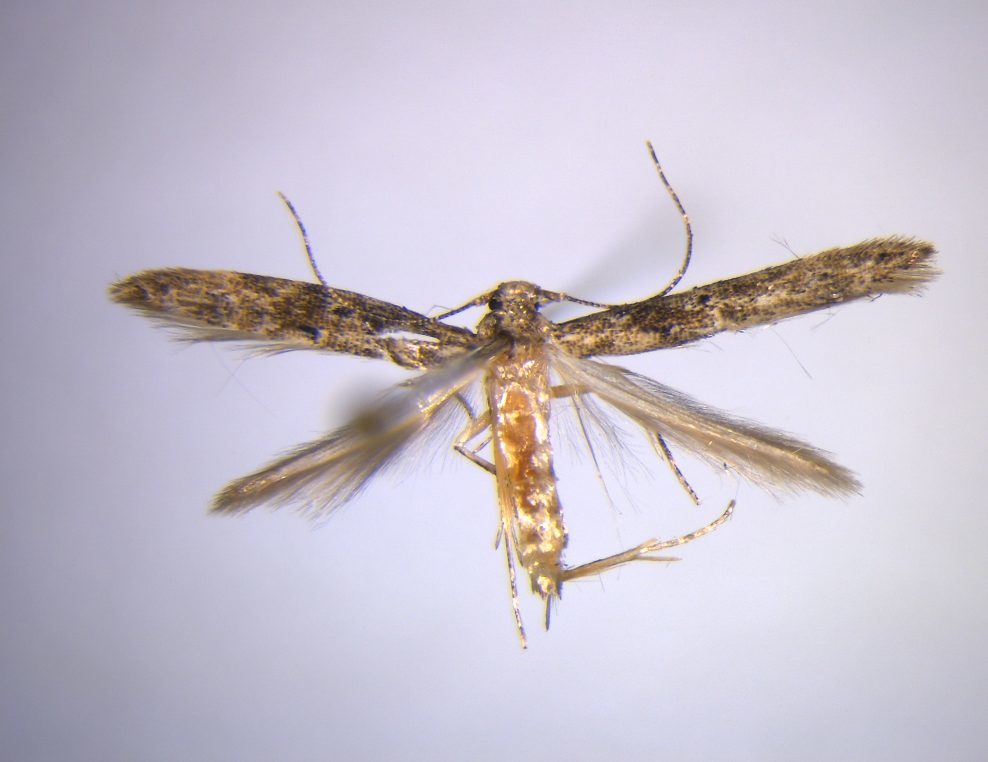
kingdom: Animalia
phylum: Arthropoda
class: Insecta
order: Lepidoptera
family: Elachistidae
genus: Microcolona
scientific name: Microcolona limodes
